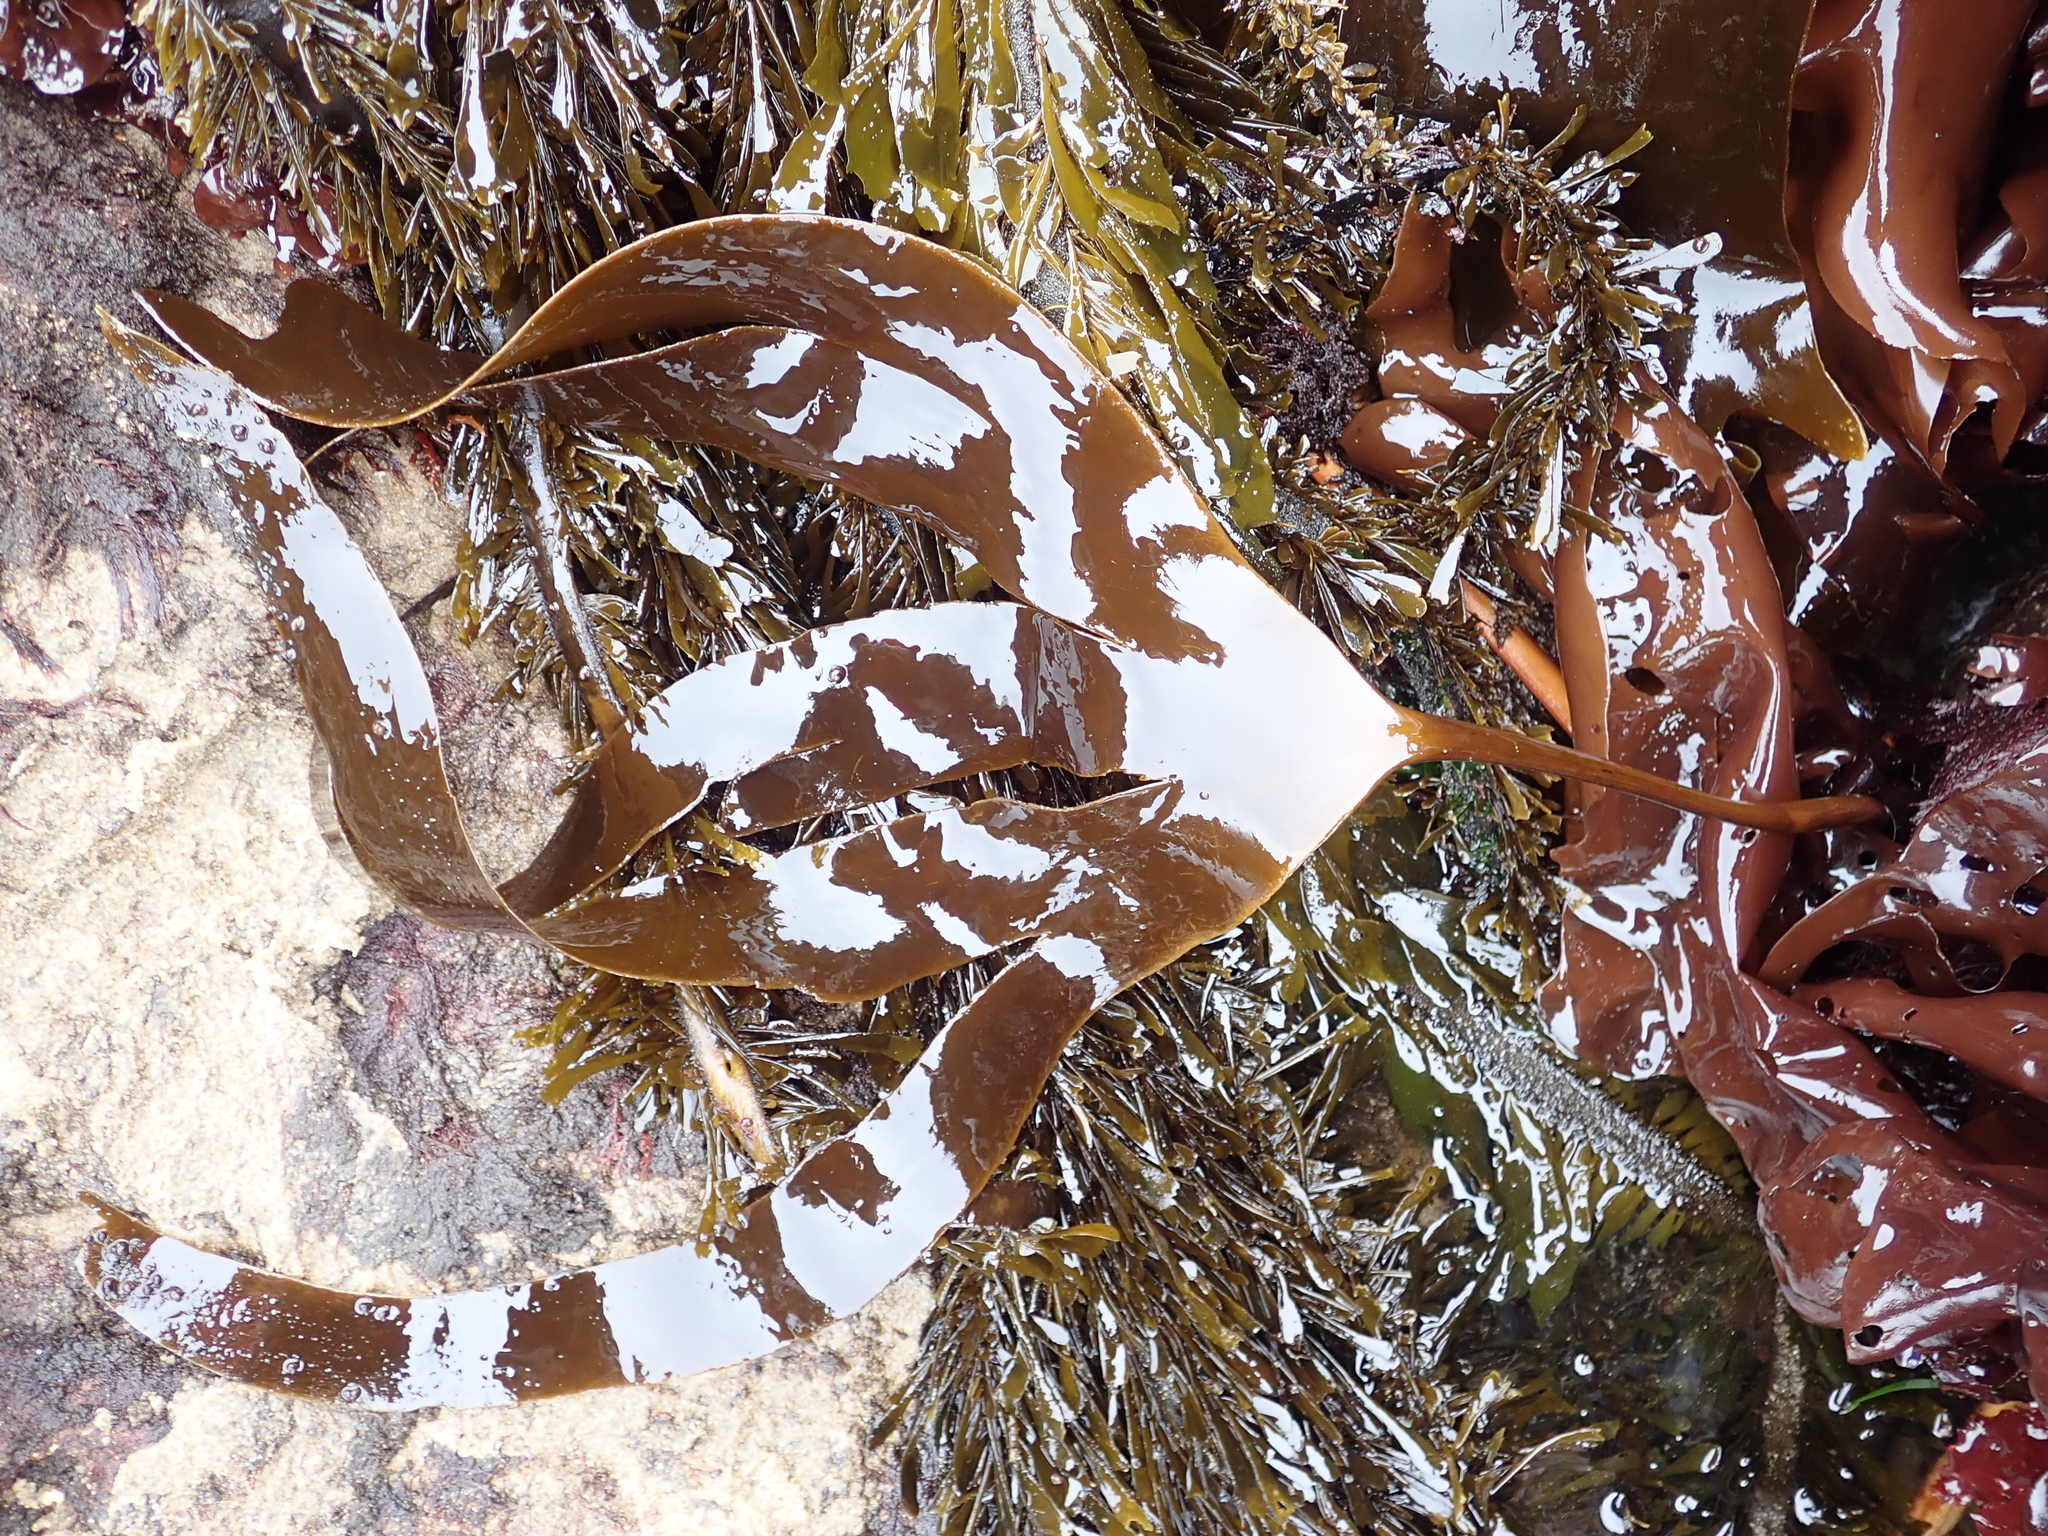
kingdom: Chromista
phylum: Ochrophyta
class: Phaeophyceae
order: Laminariales
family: Laminariaceae
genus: Laminaria
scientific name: Laminaria setchellii
